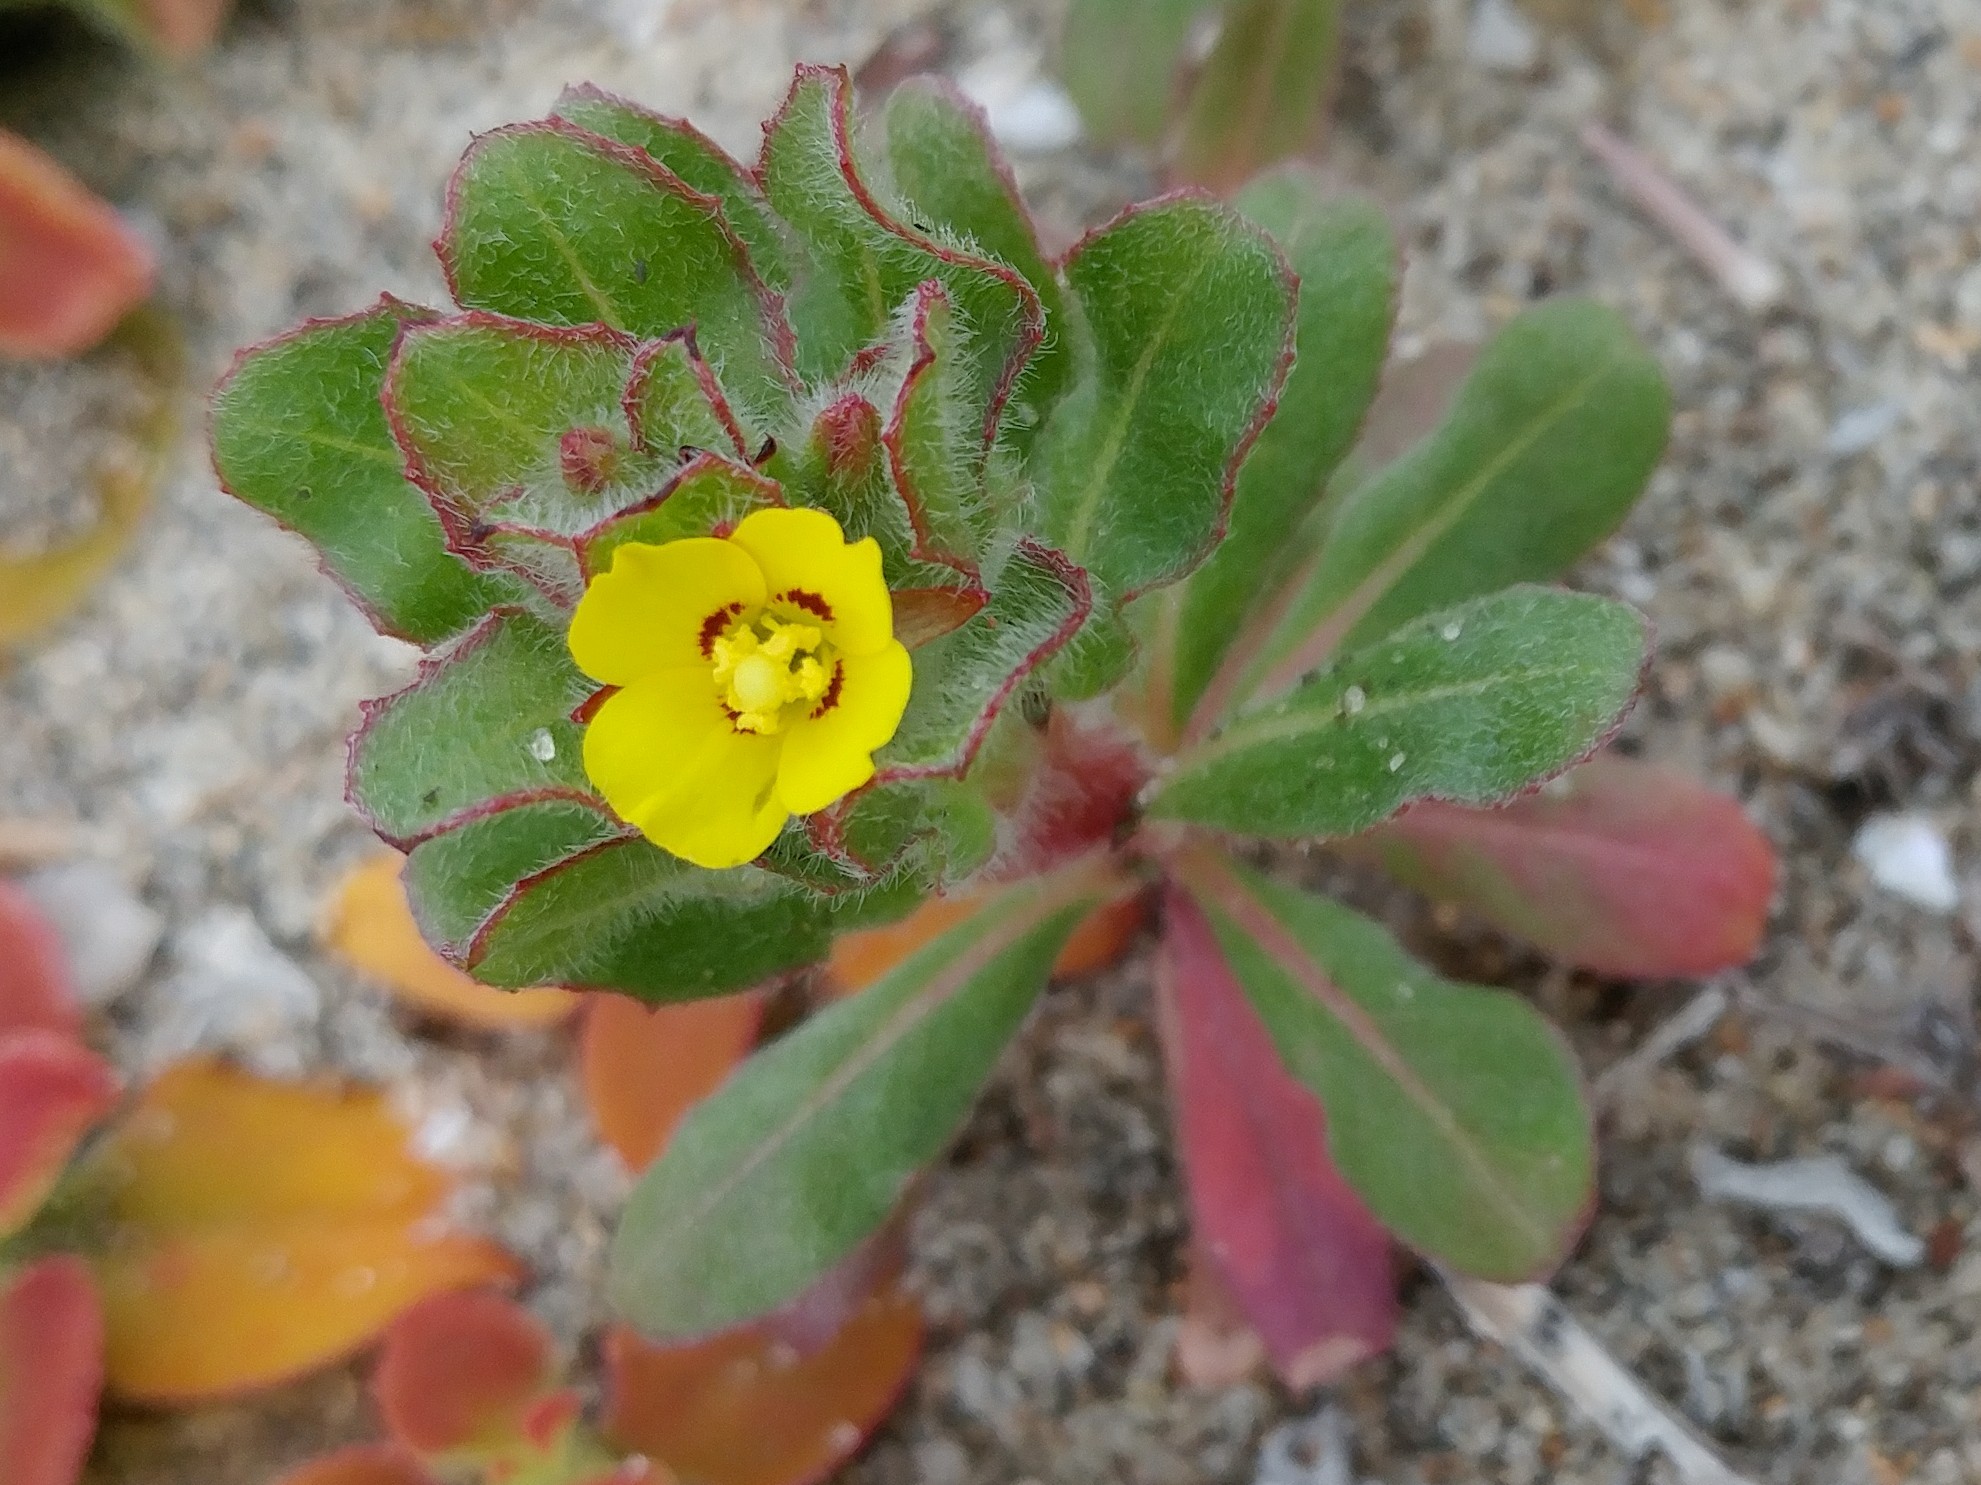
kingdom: Plantae
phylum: Tracheophyta
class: Magnoliopsida
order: Myrtales
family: Onagraceae
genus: Camissoniopsis
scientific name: Camissoniopsis guadalupensis
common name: Guadalupe suncup
